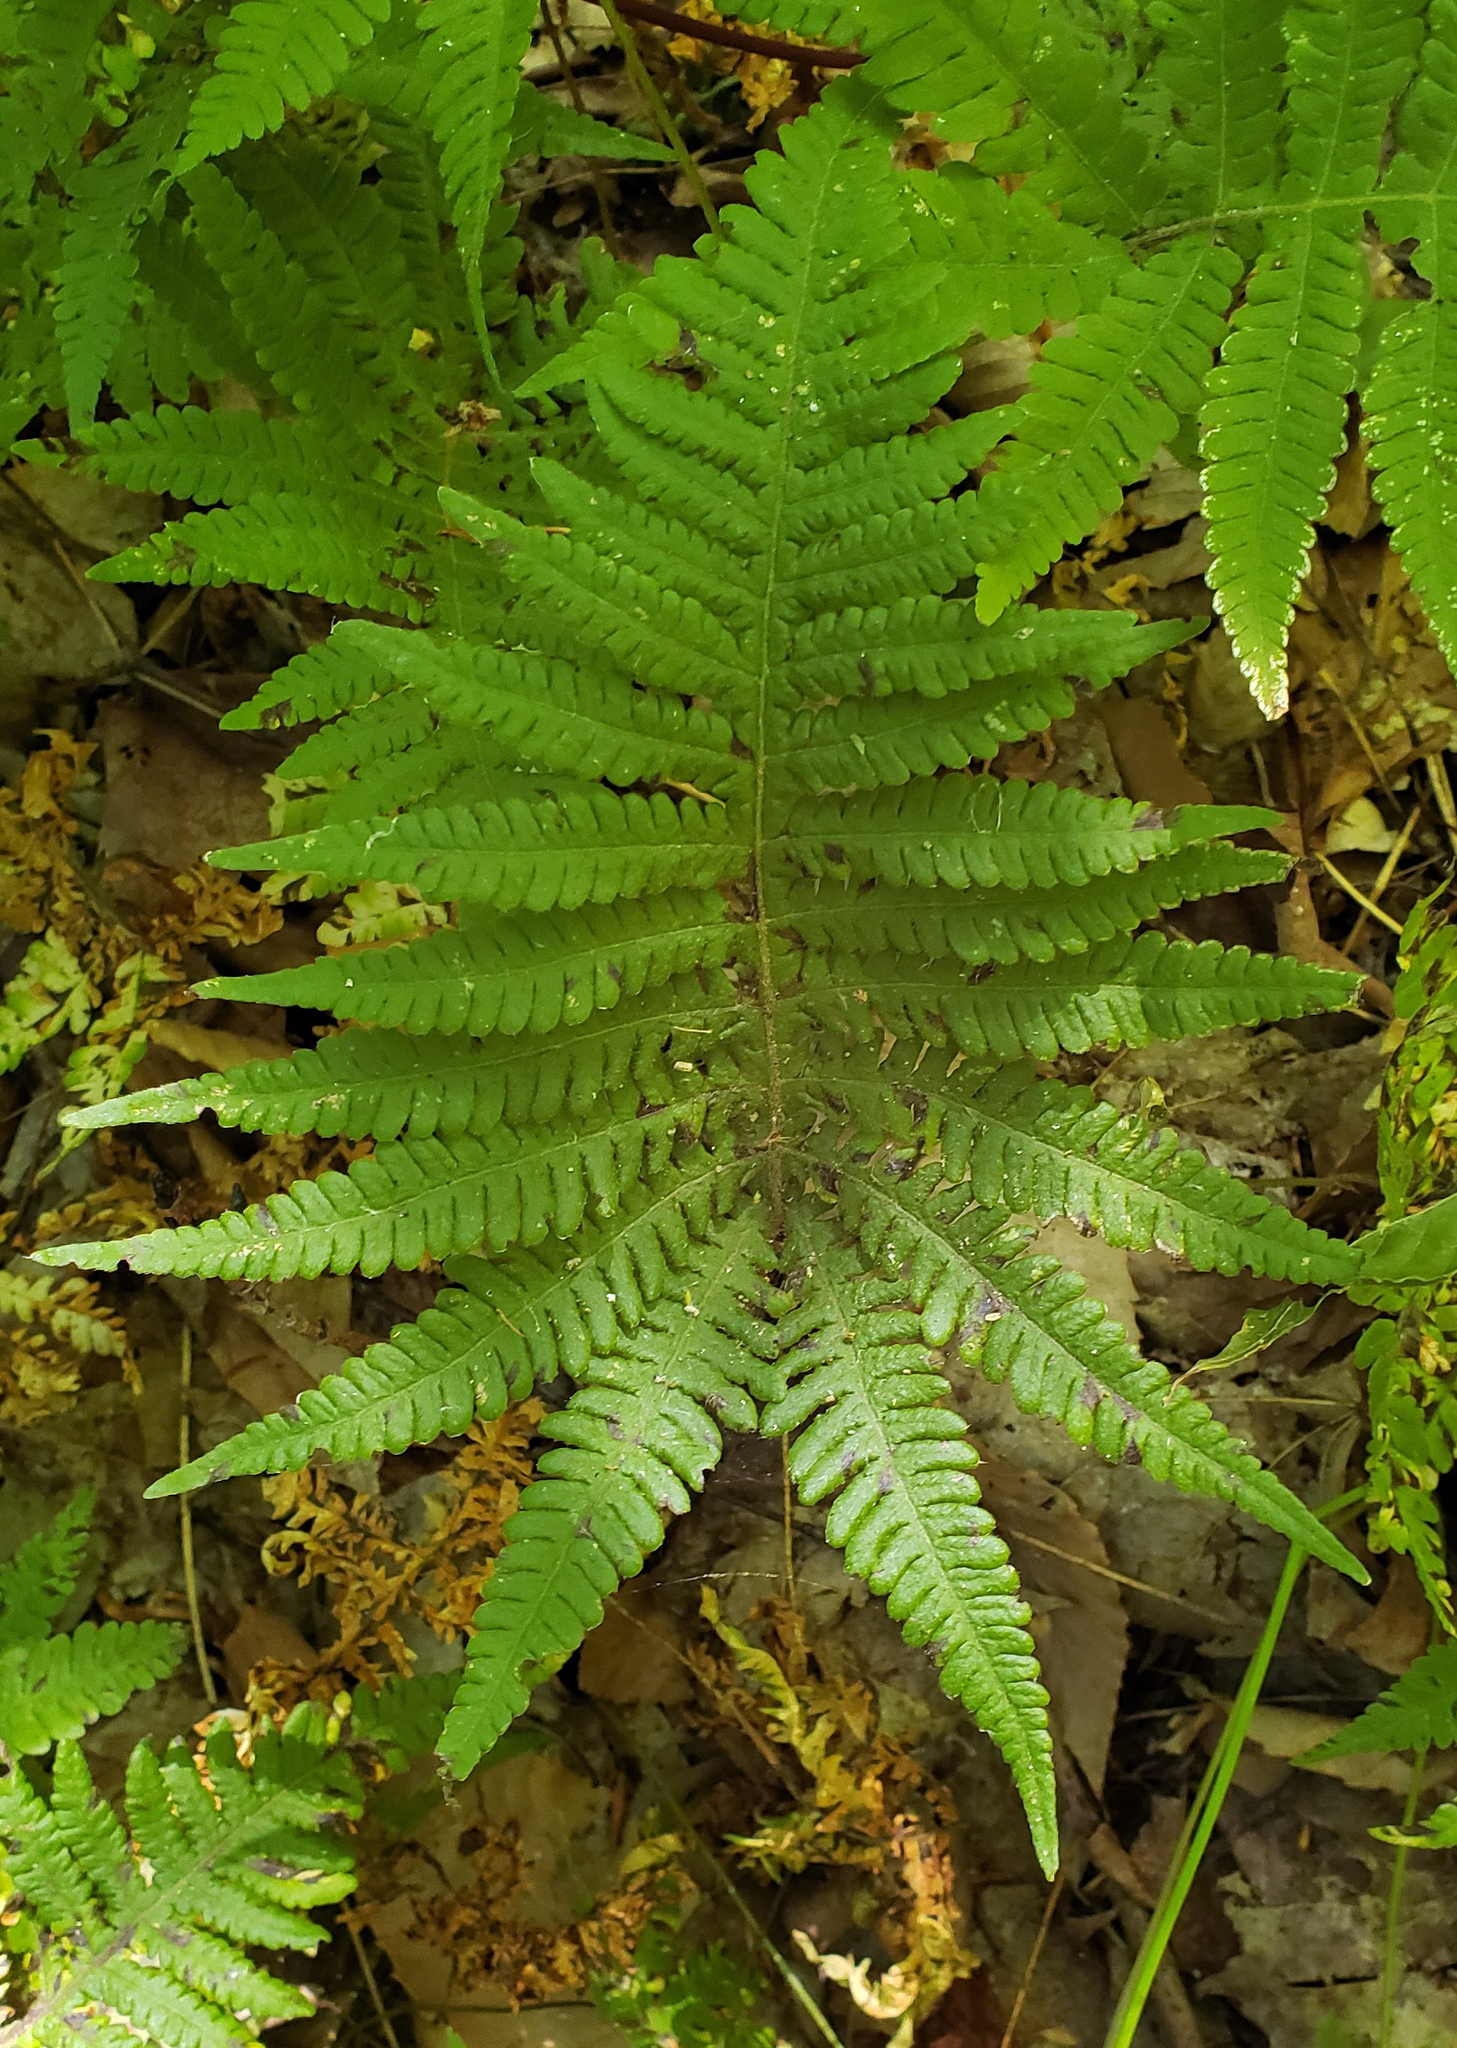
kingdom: Plantae
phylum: Tracheophyta
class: Polypodiopsida
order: Polypodiales
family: Thelypteridaceae
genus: Phegopteris
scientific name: Phegopteris connectilis
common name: Beech fern
